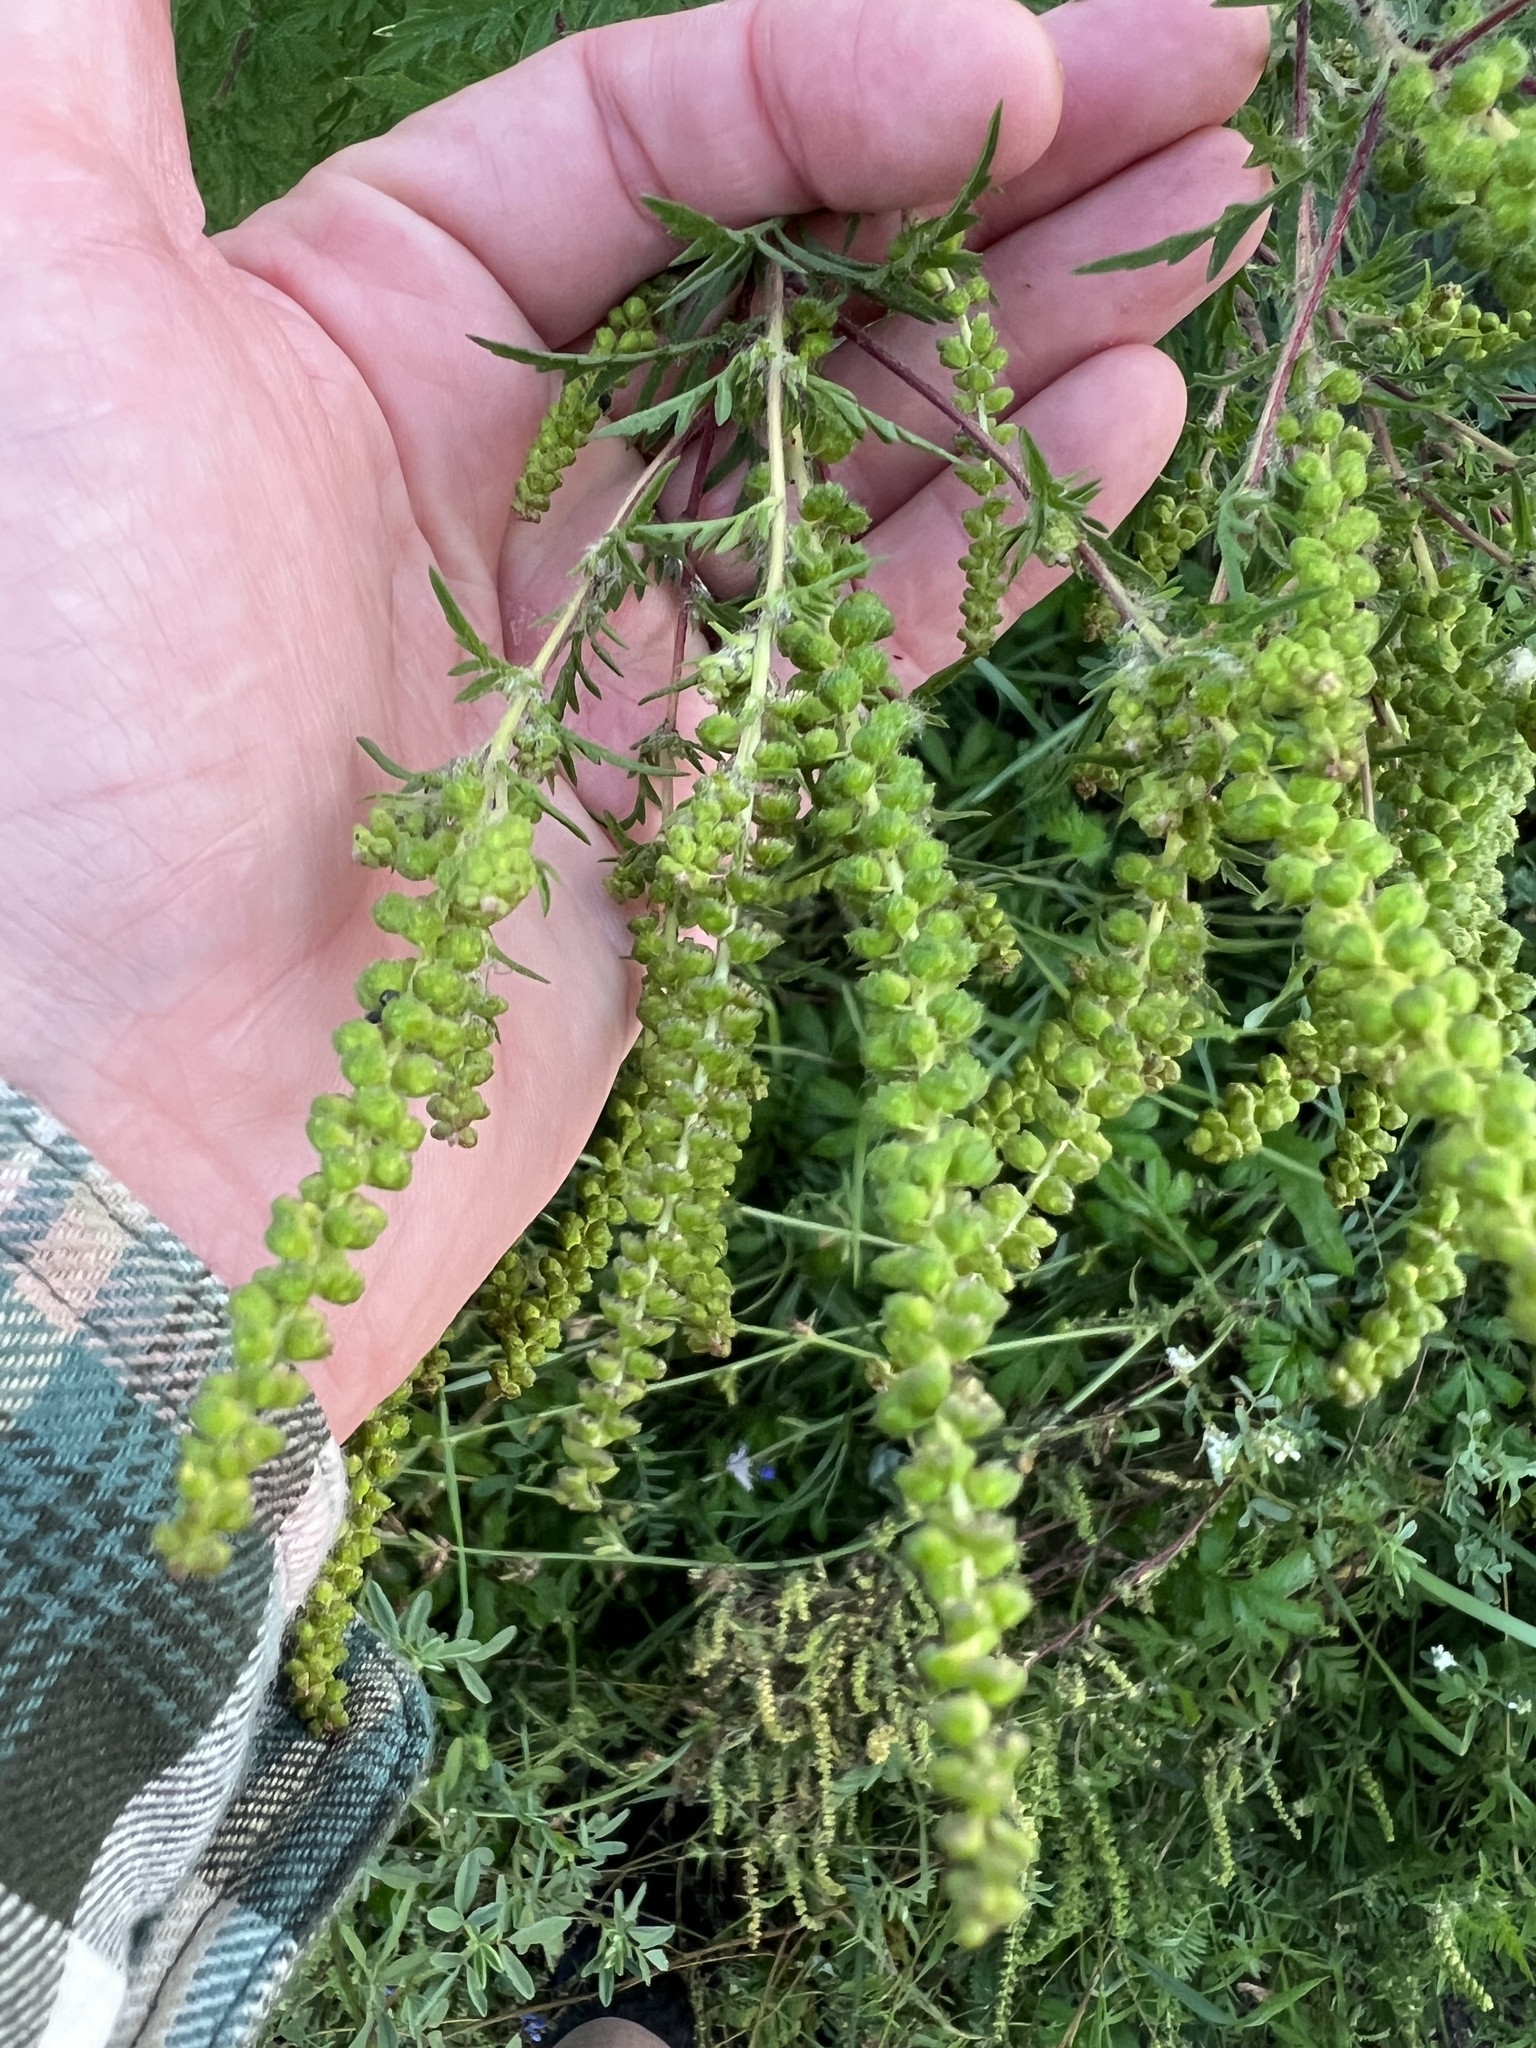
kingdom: Plantae
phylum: Tracheophyta
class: Magnoliopsida
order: Asterales
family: Asteraceae
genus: Ambrosia
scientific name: Ambrosia artemisiifolia
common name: Annual ragweed
